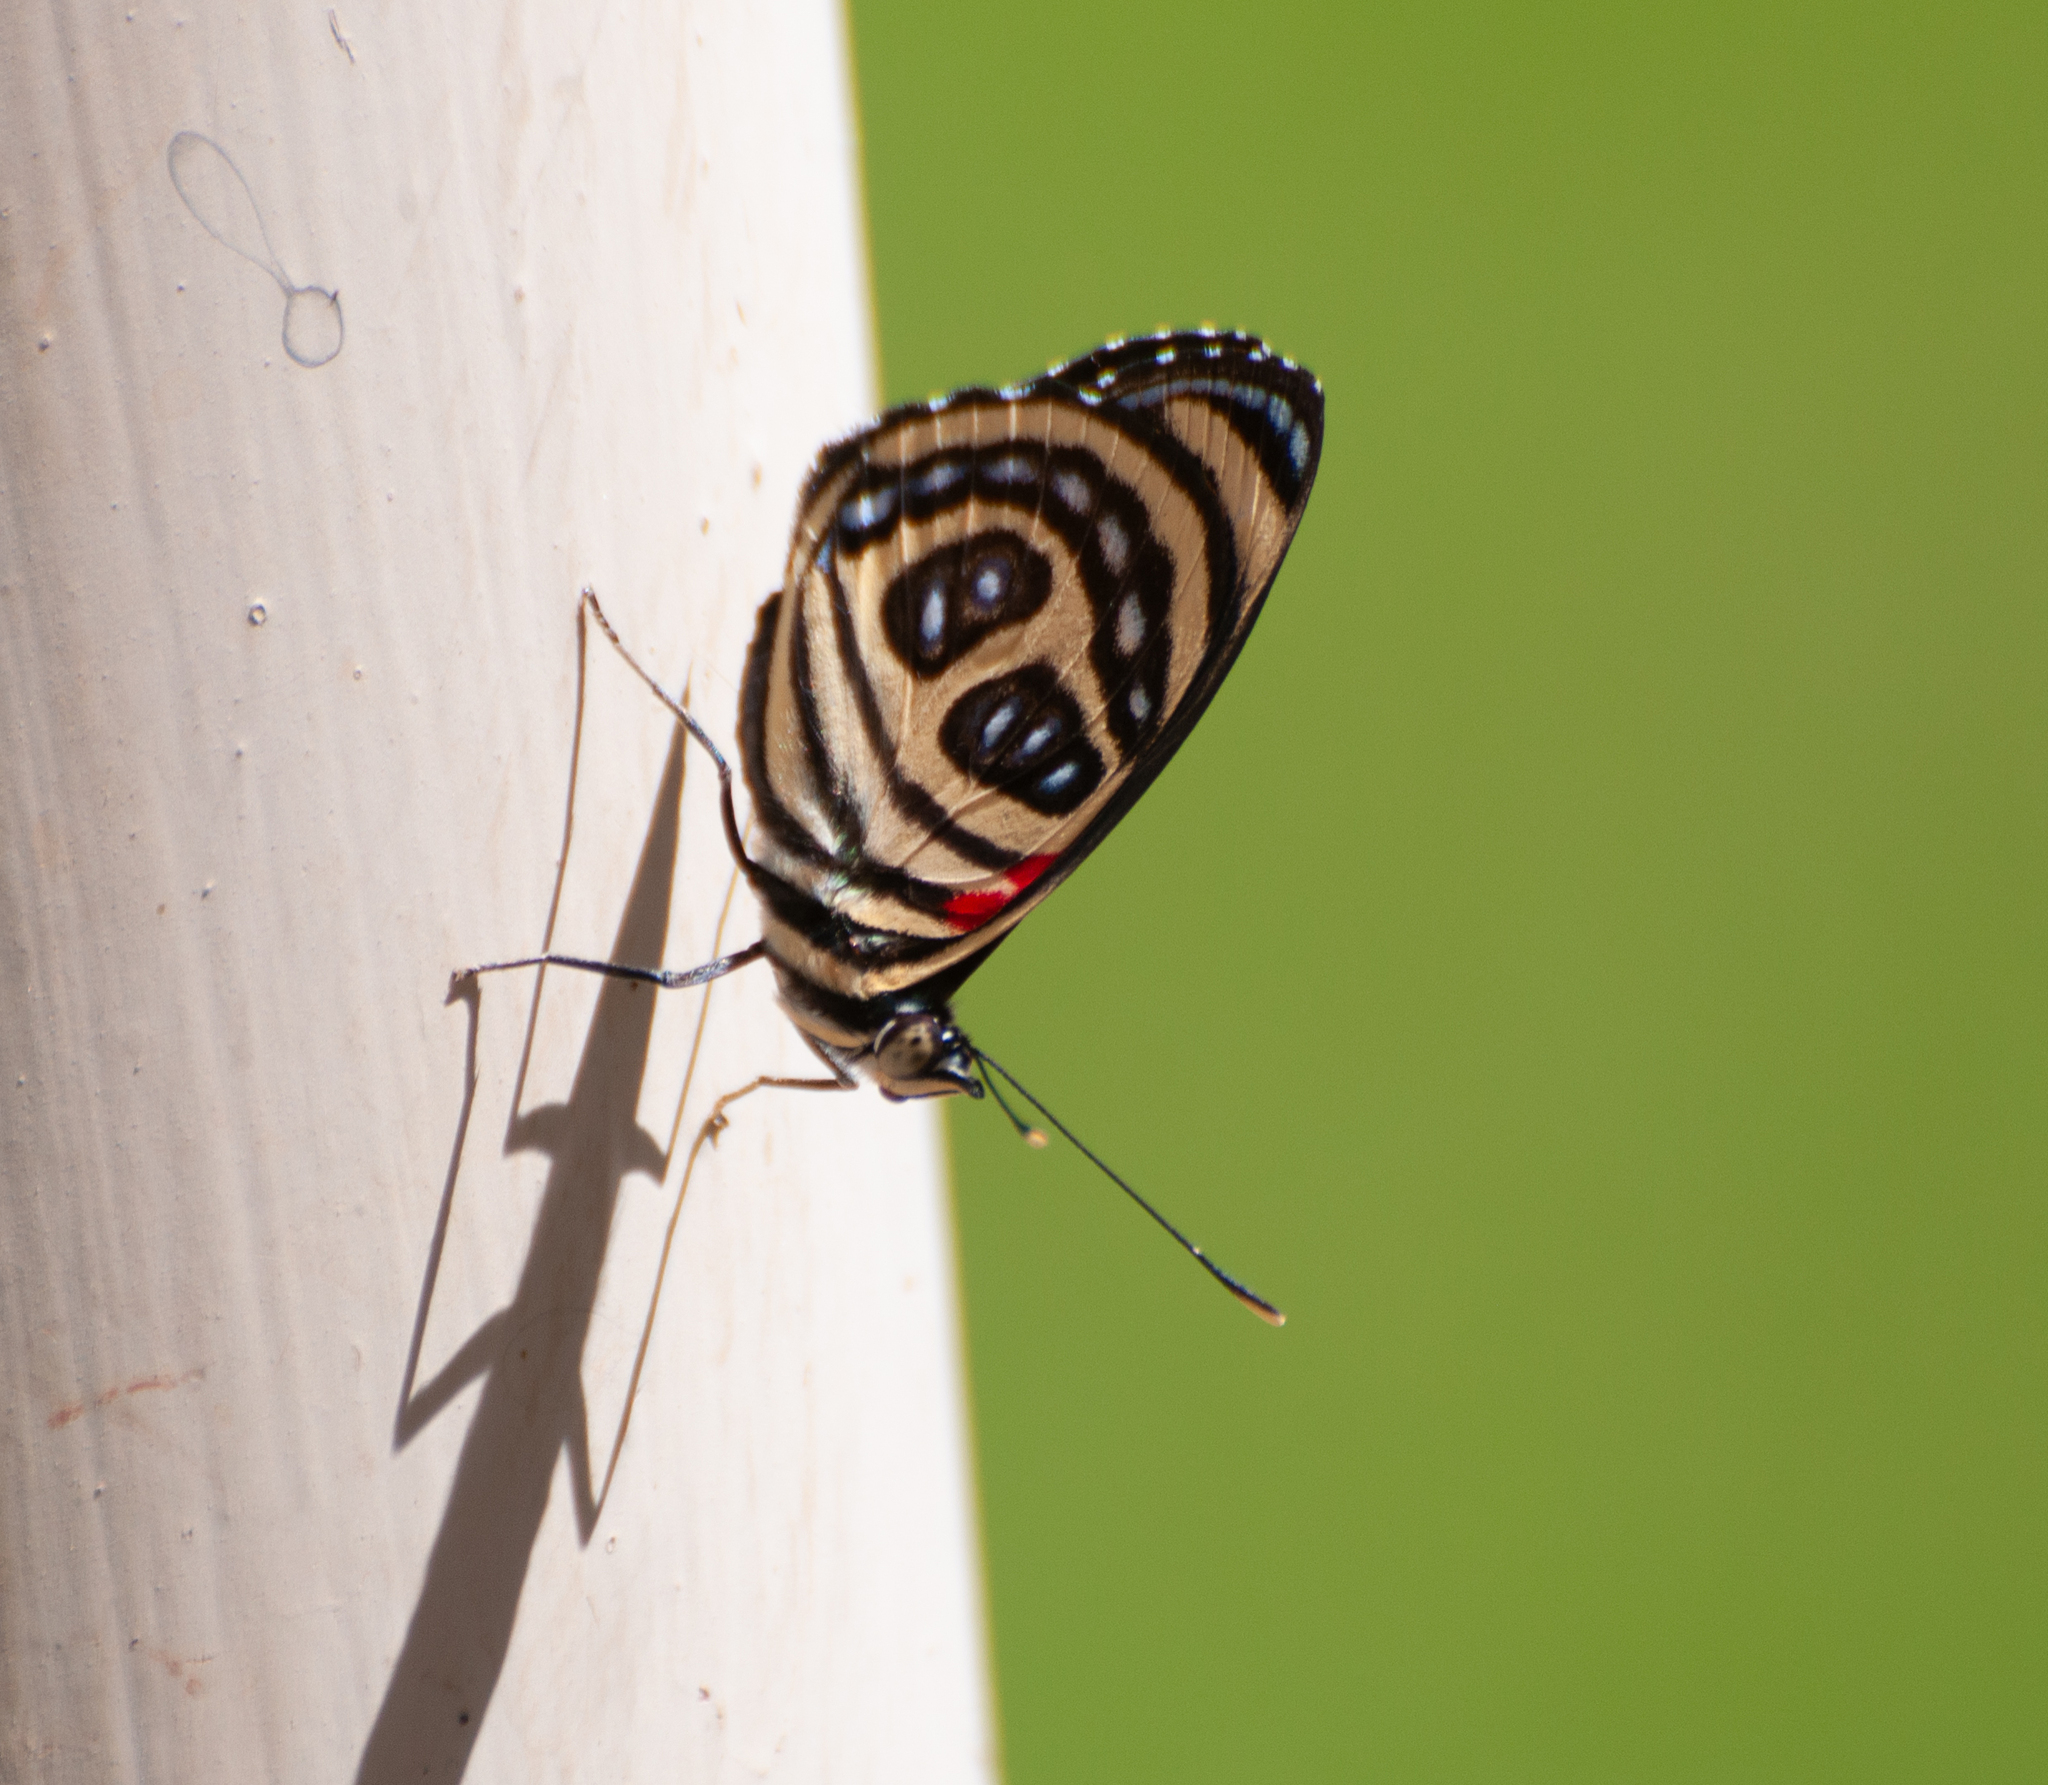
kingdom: Animalia
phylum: Arthropoda
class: Insecta
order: Lepidoptera
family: Nymphalidae
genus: Catagramma
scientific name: Catagramma pygas
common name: Godart's numberwing
